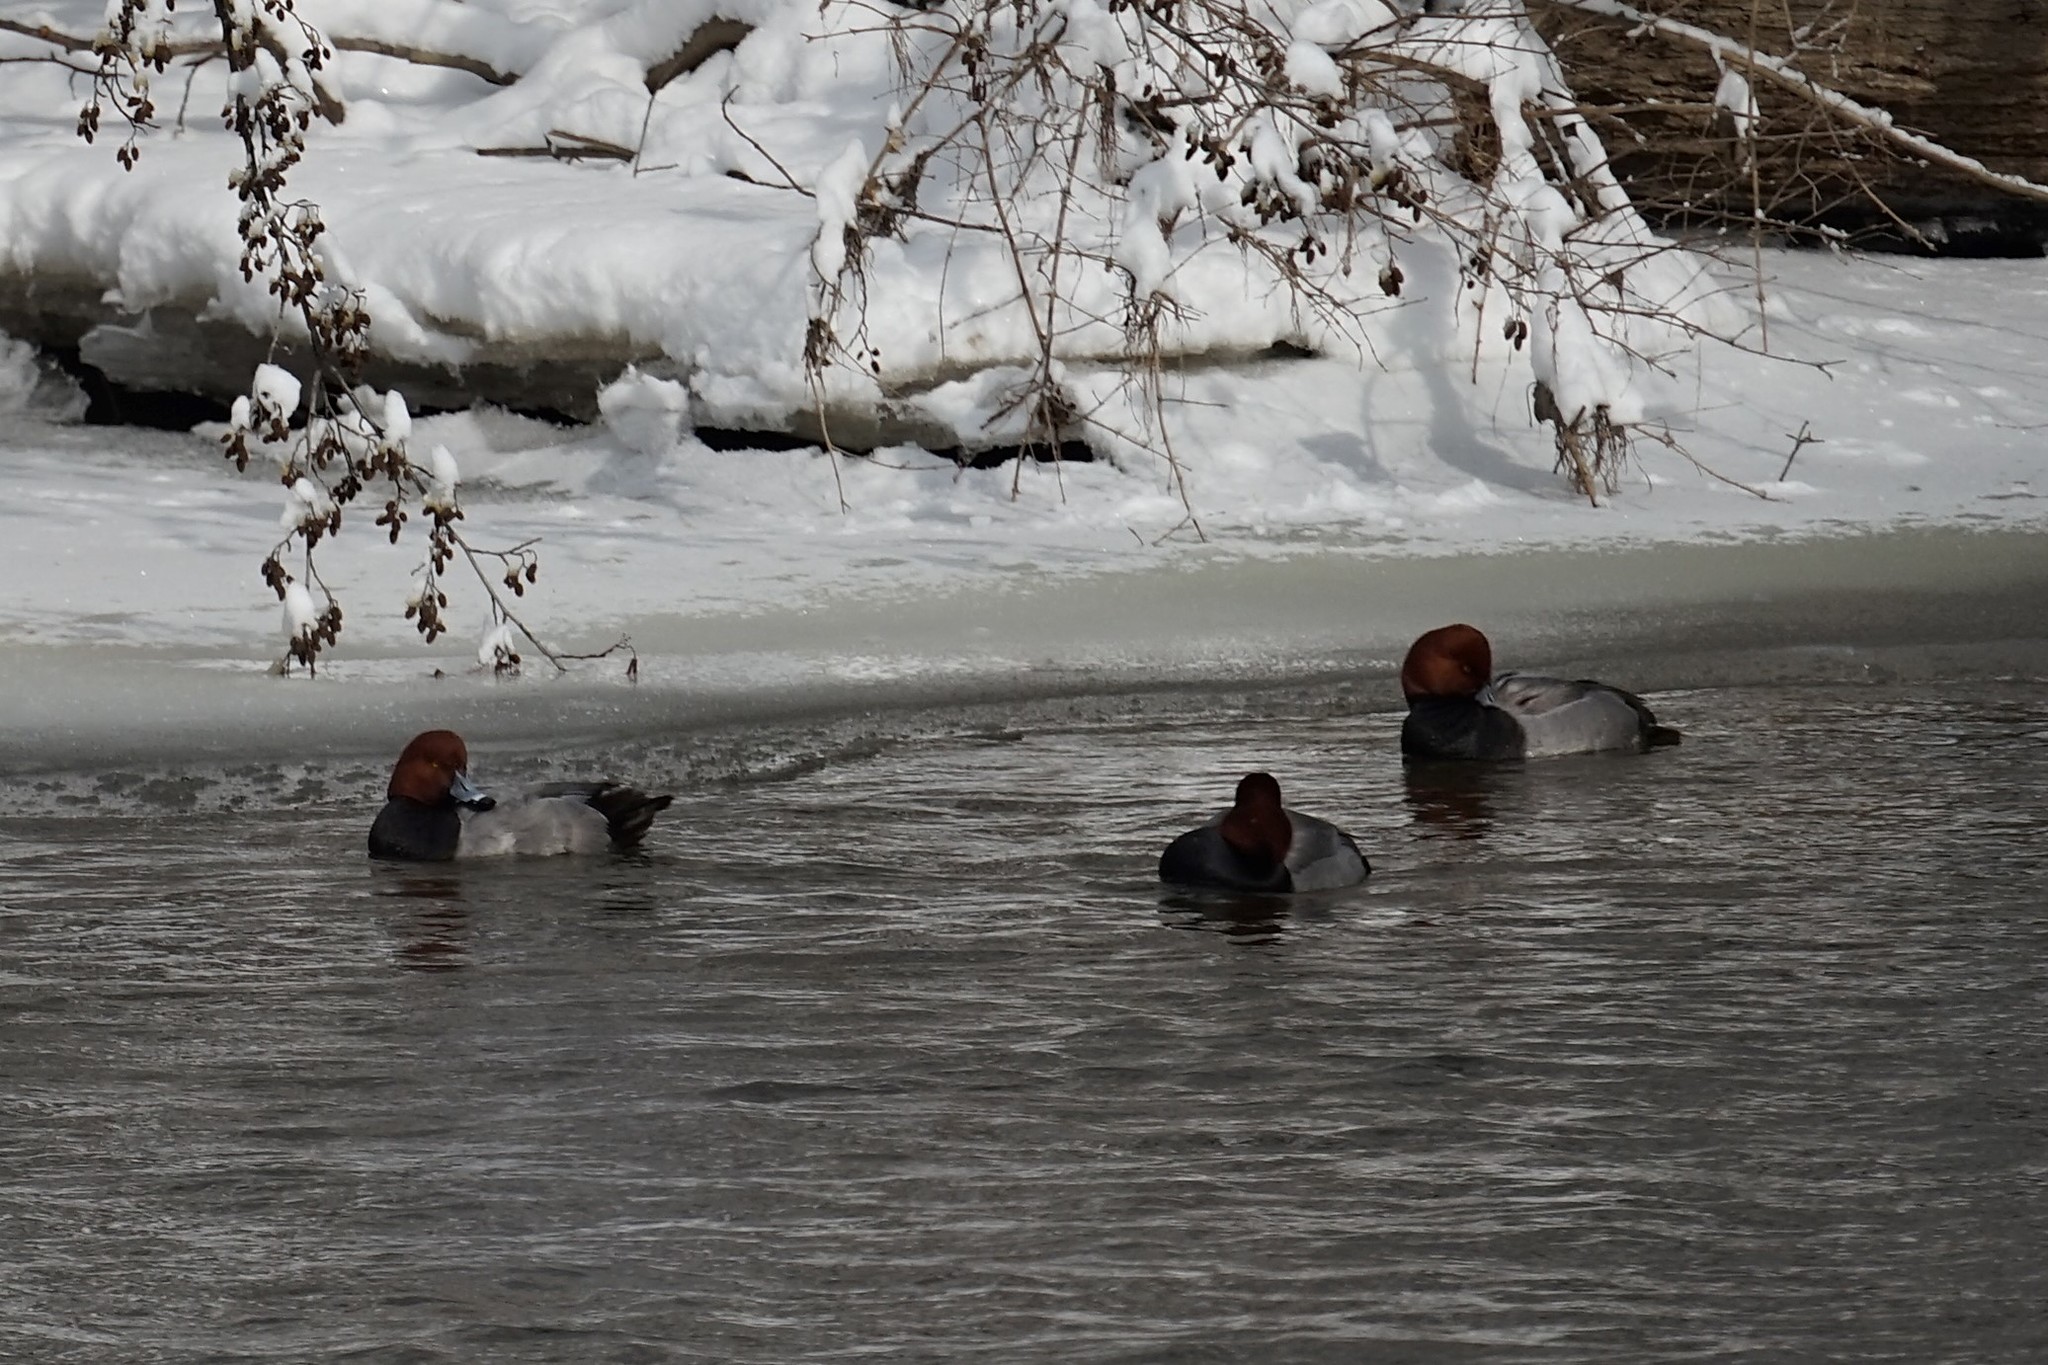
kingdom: Animalia
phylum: Chordata
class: Aves
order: Anseriformes
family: Anatidae
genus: Aythya
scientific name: Aythya americana
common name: Redhead
